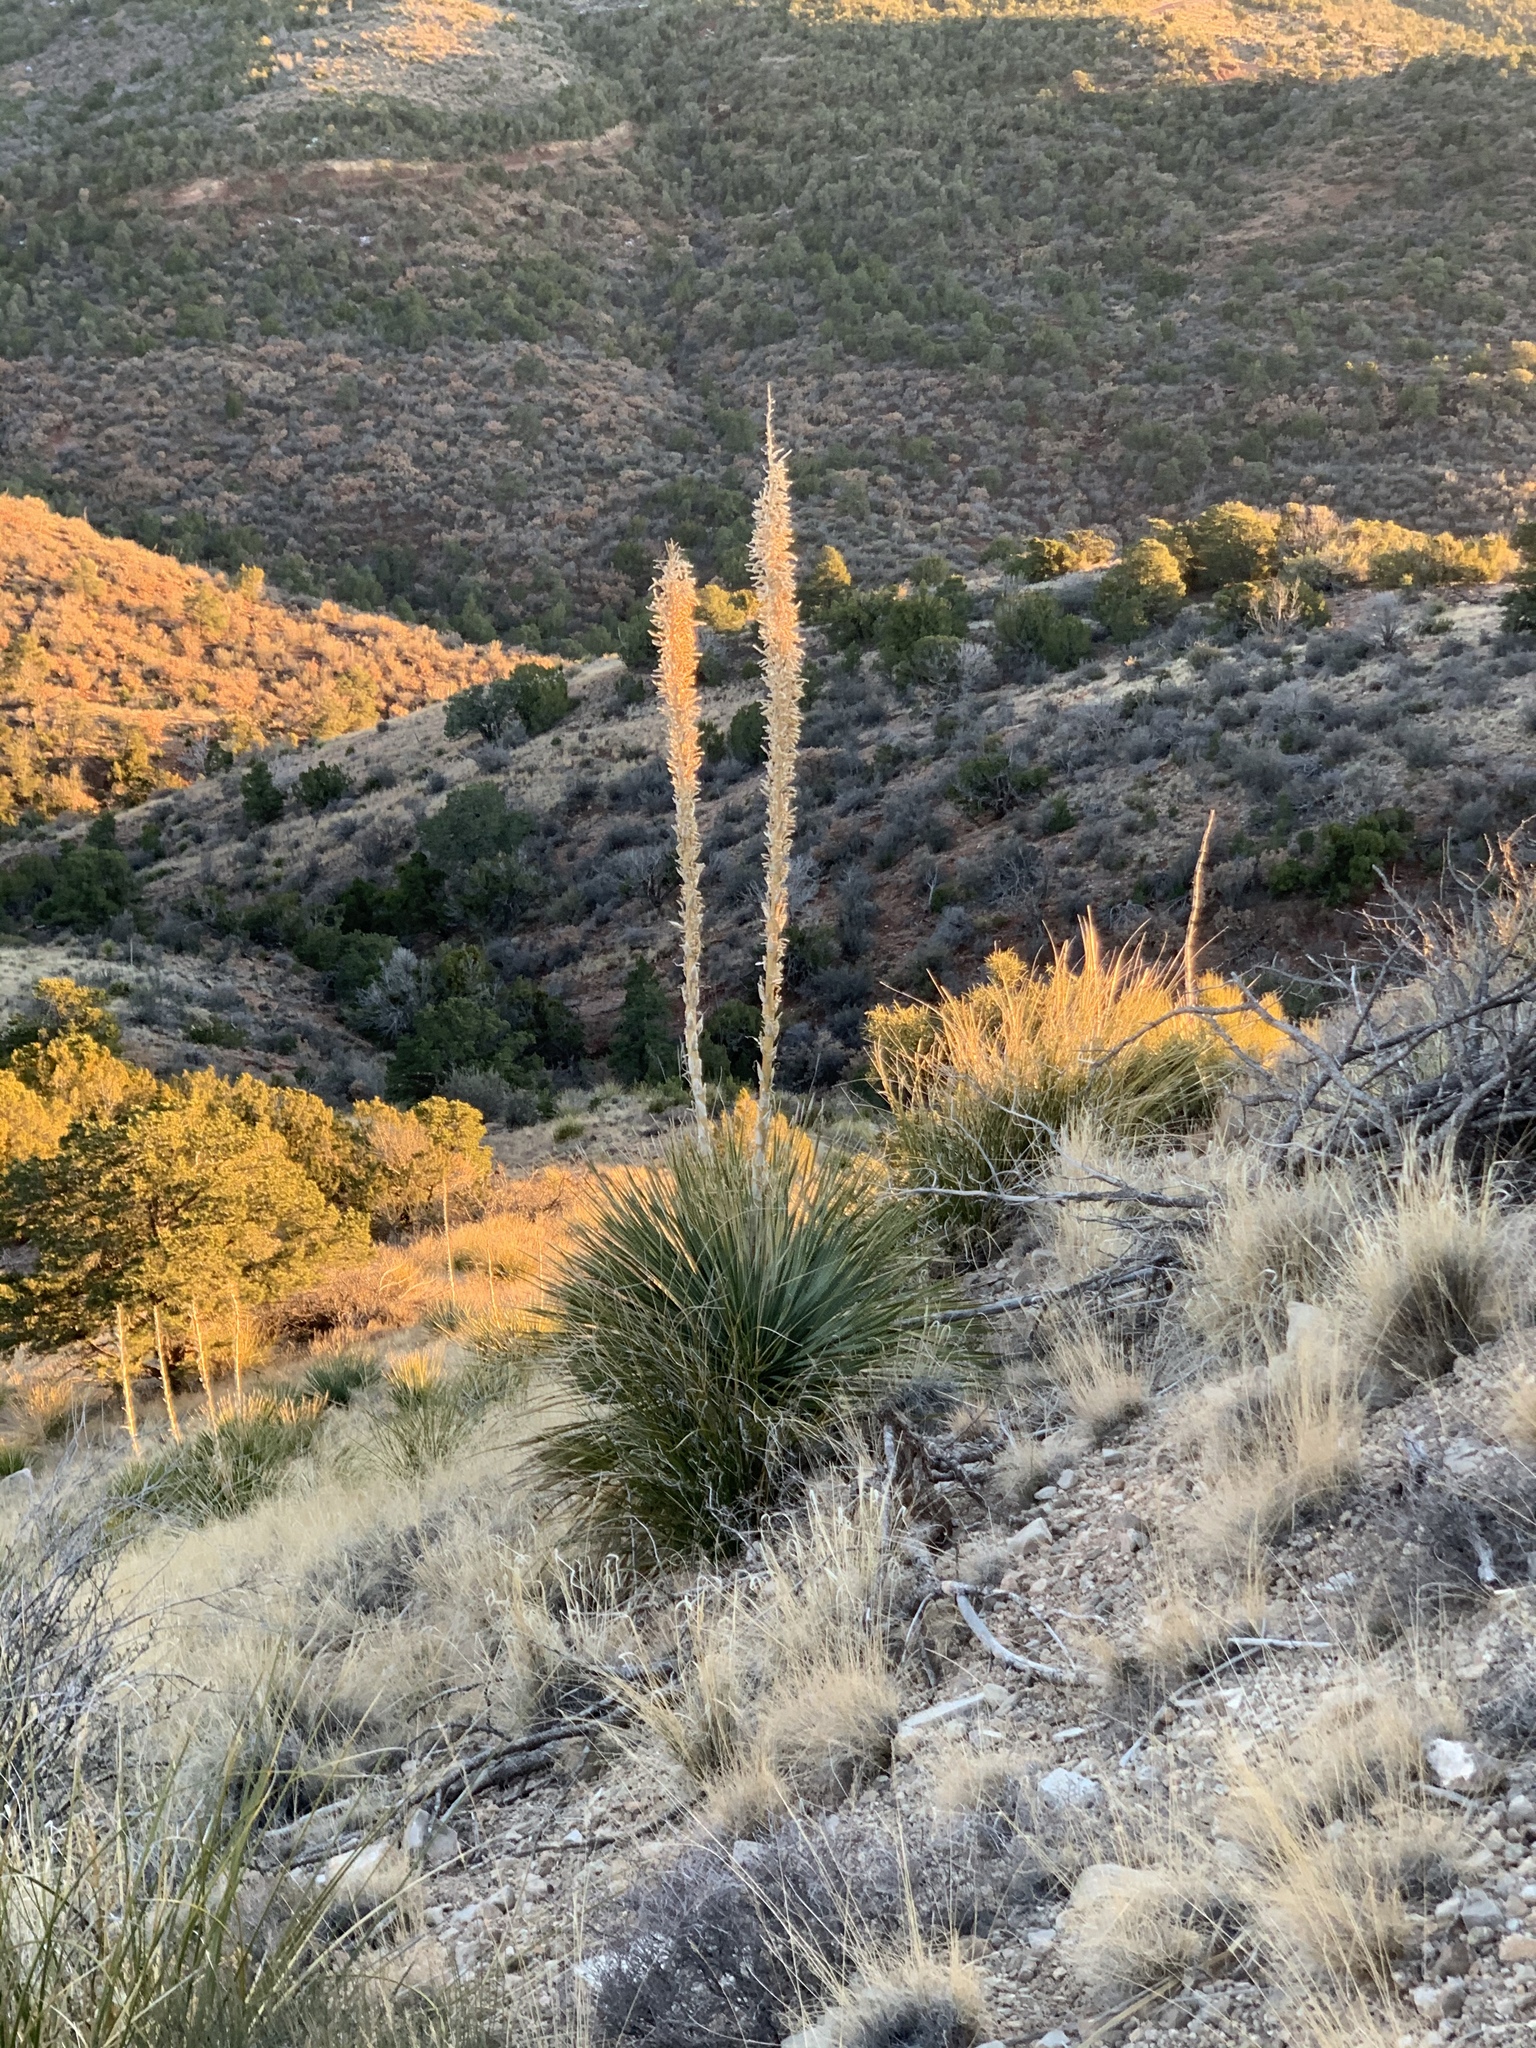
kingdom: Plantae
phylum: Tracheophyta
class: Liliopsida
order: Asparagales
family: Asparagaceae
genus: Dasylirion
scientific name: Dasylirion wheeleri
